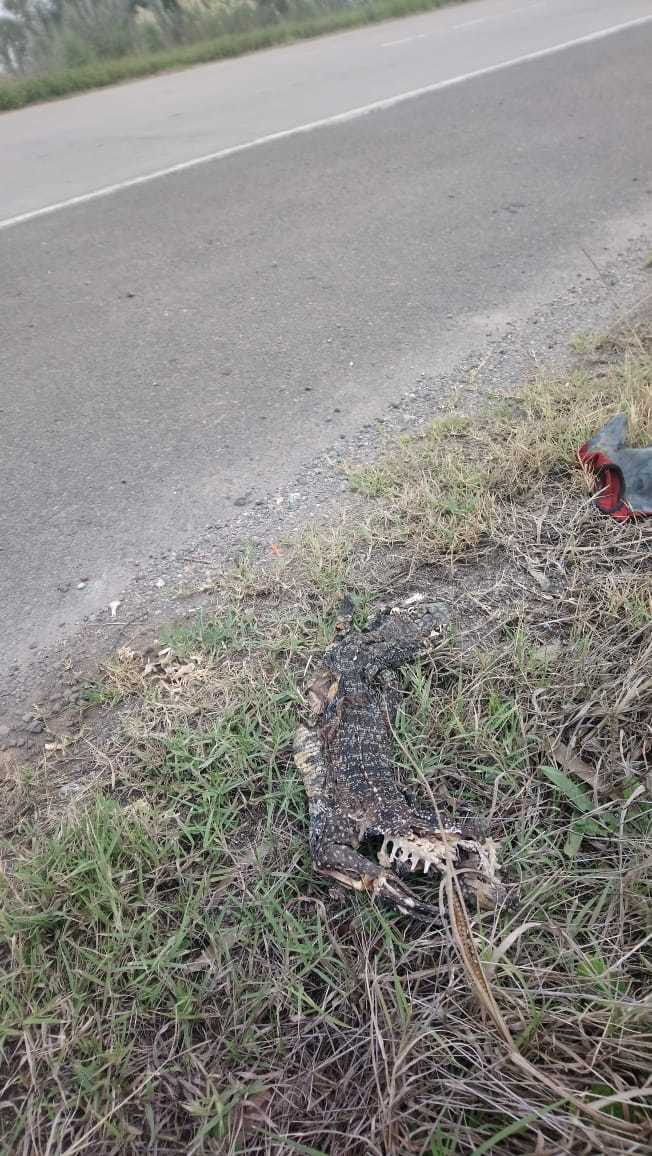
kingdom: Animalia
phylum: Chordata
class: Squamata
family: Teiidae
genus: Salvator
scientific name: Salvator merianae
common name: Argentine black and white tegu
